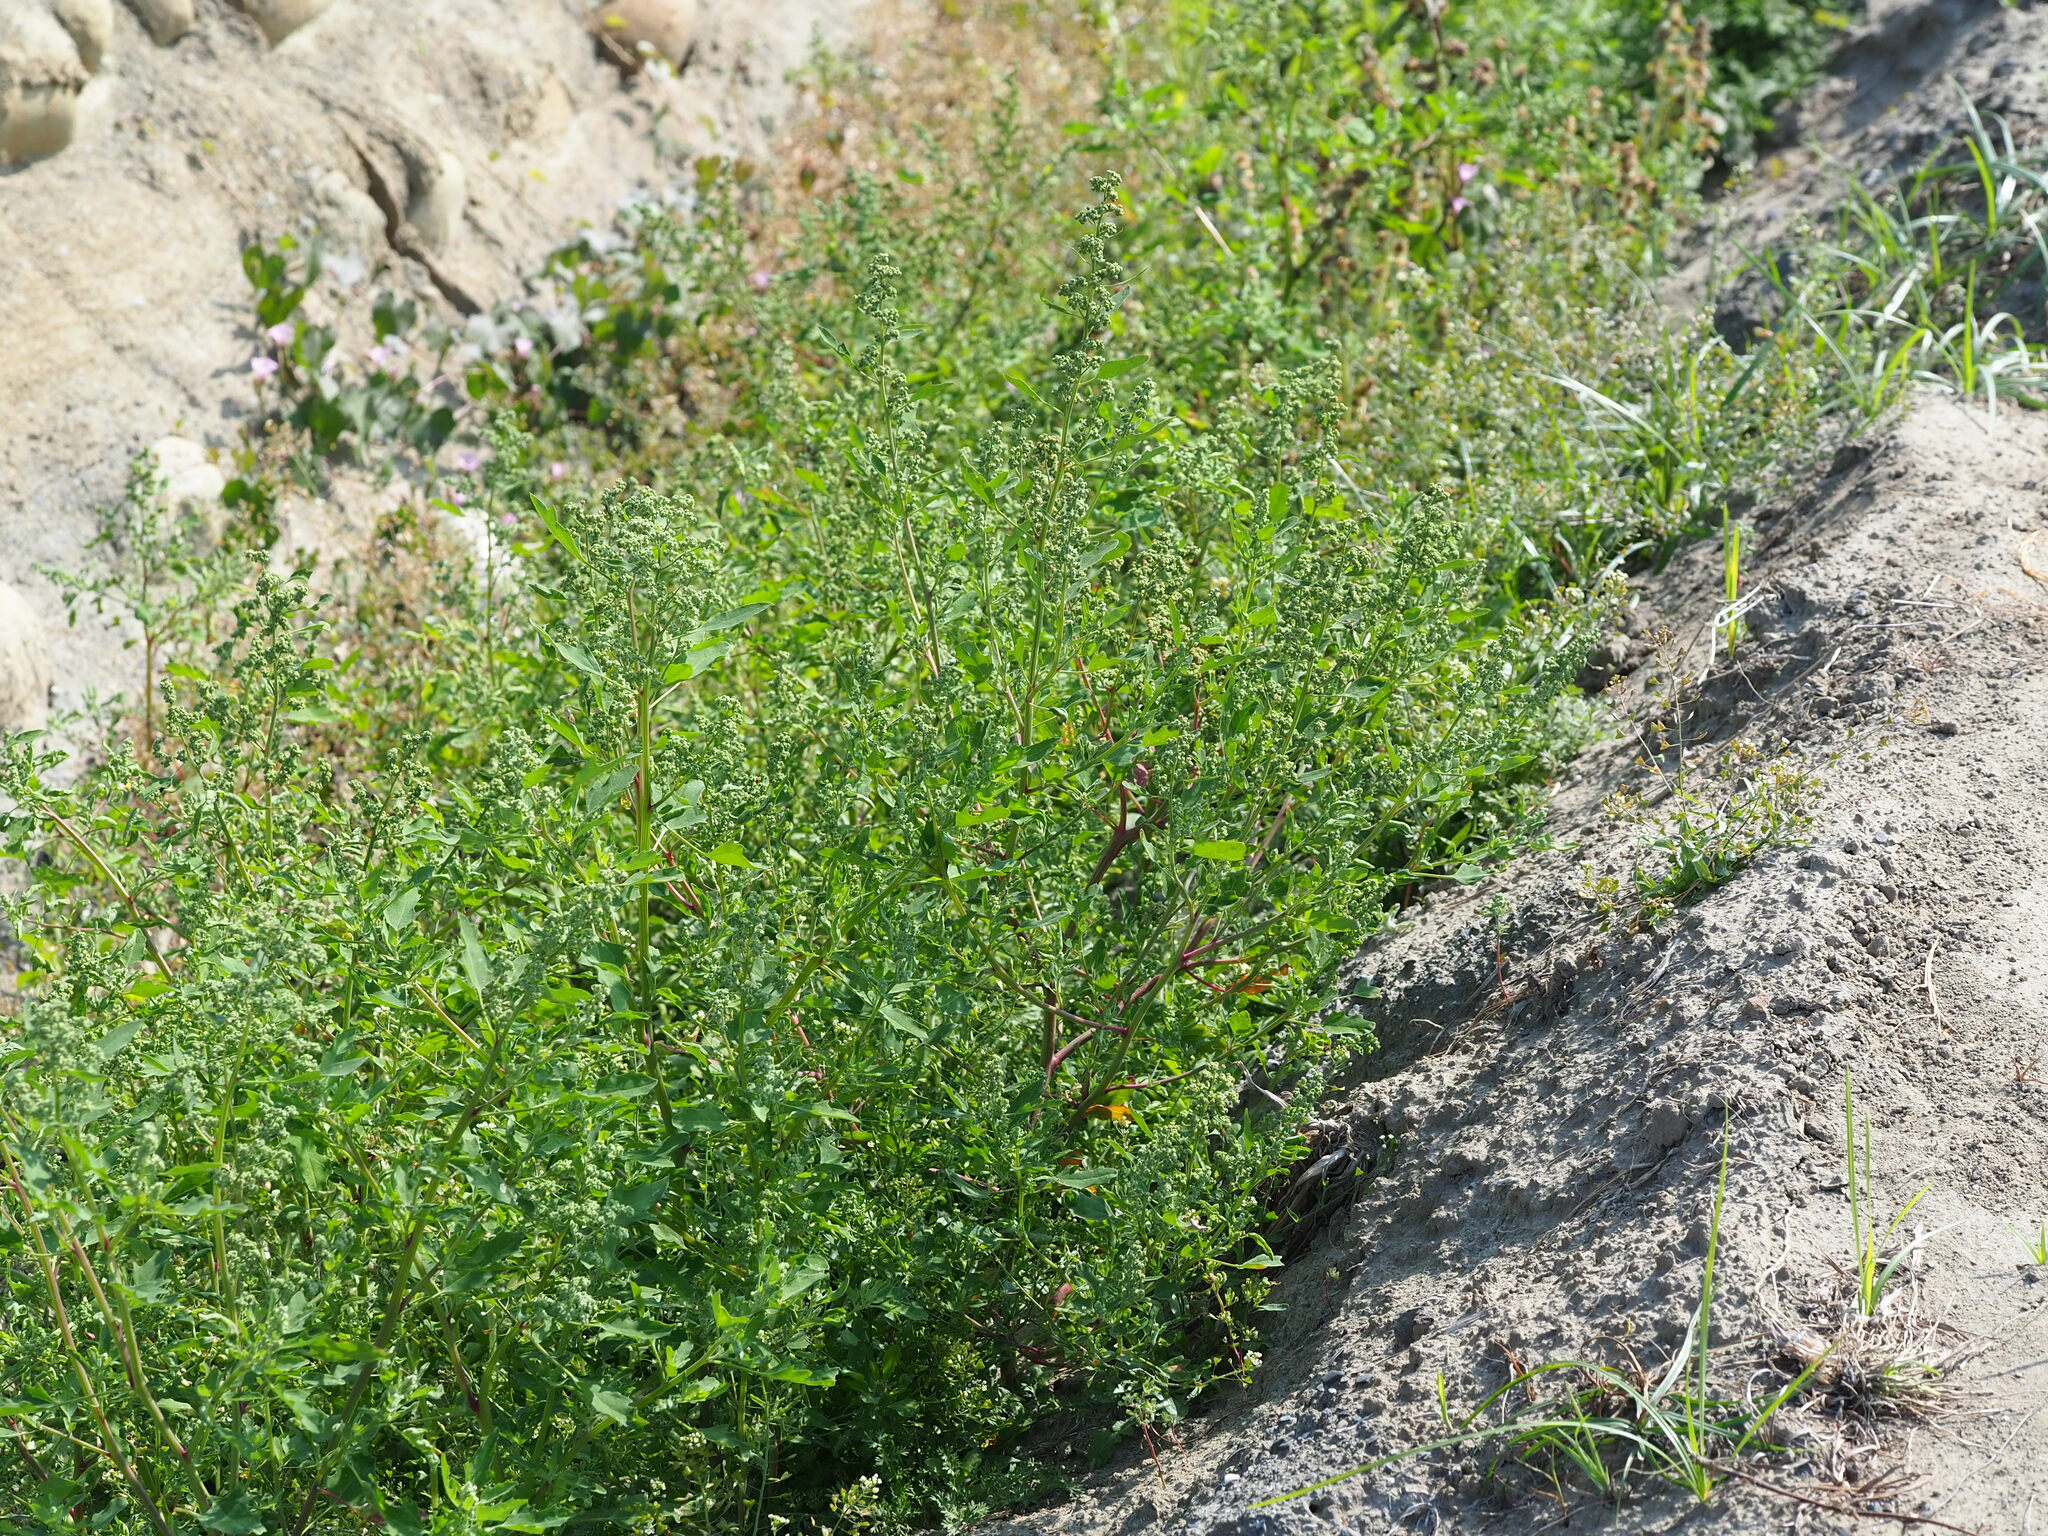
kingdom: Plantae
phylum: Tracheophyta
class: Magnoliopsida
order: Caryophyllales
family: Amaranthaceae
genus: Chenopodium
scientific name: Chenopodium ficifolium
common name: Fig-leaved goosefoot
